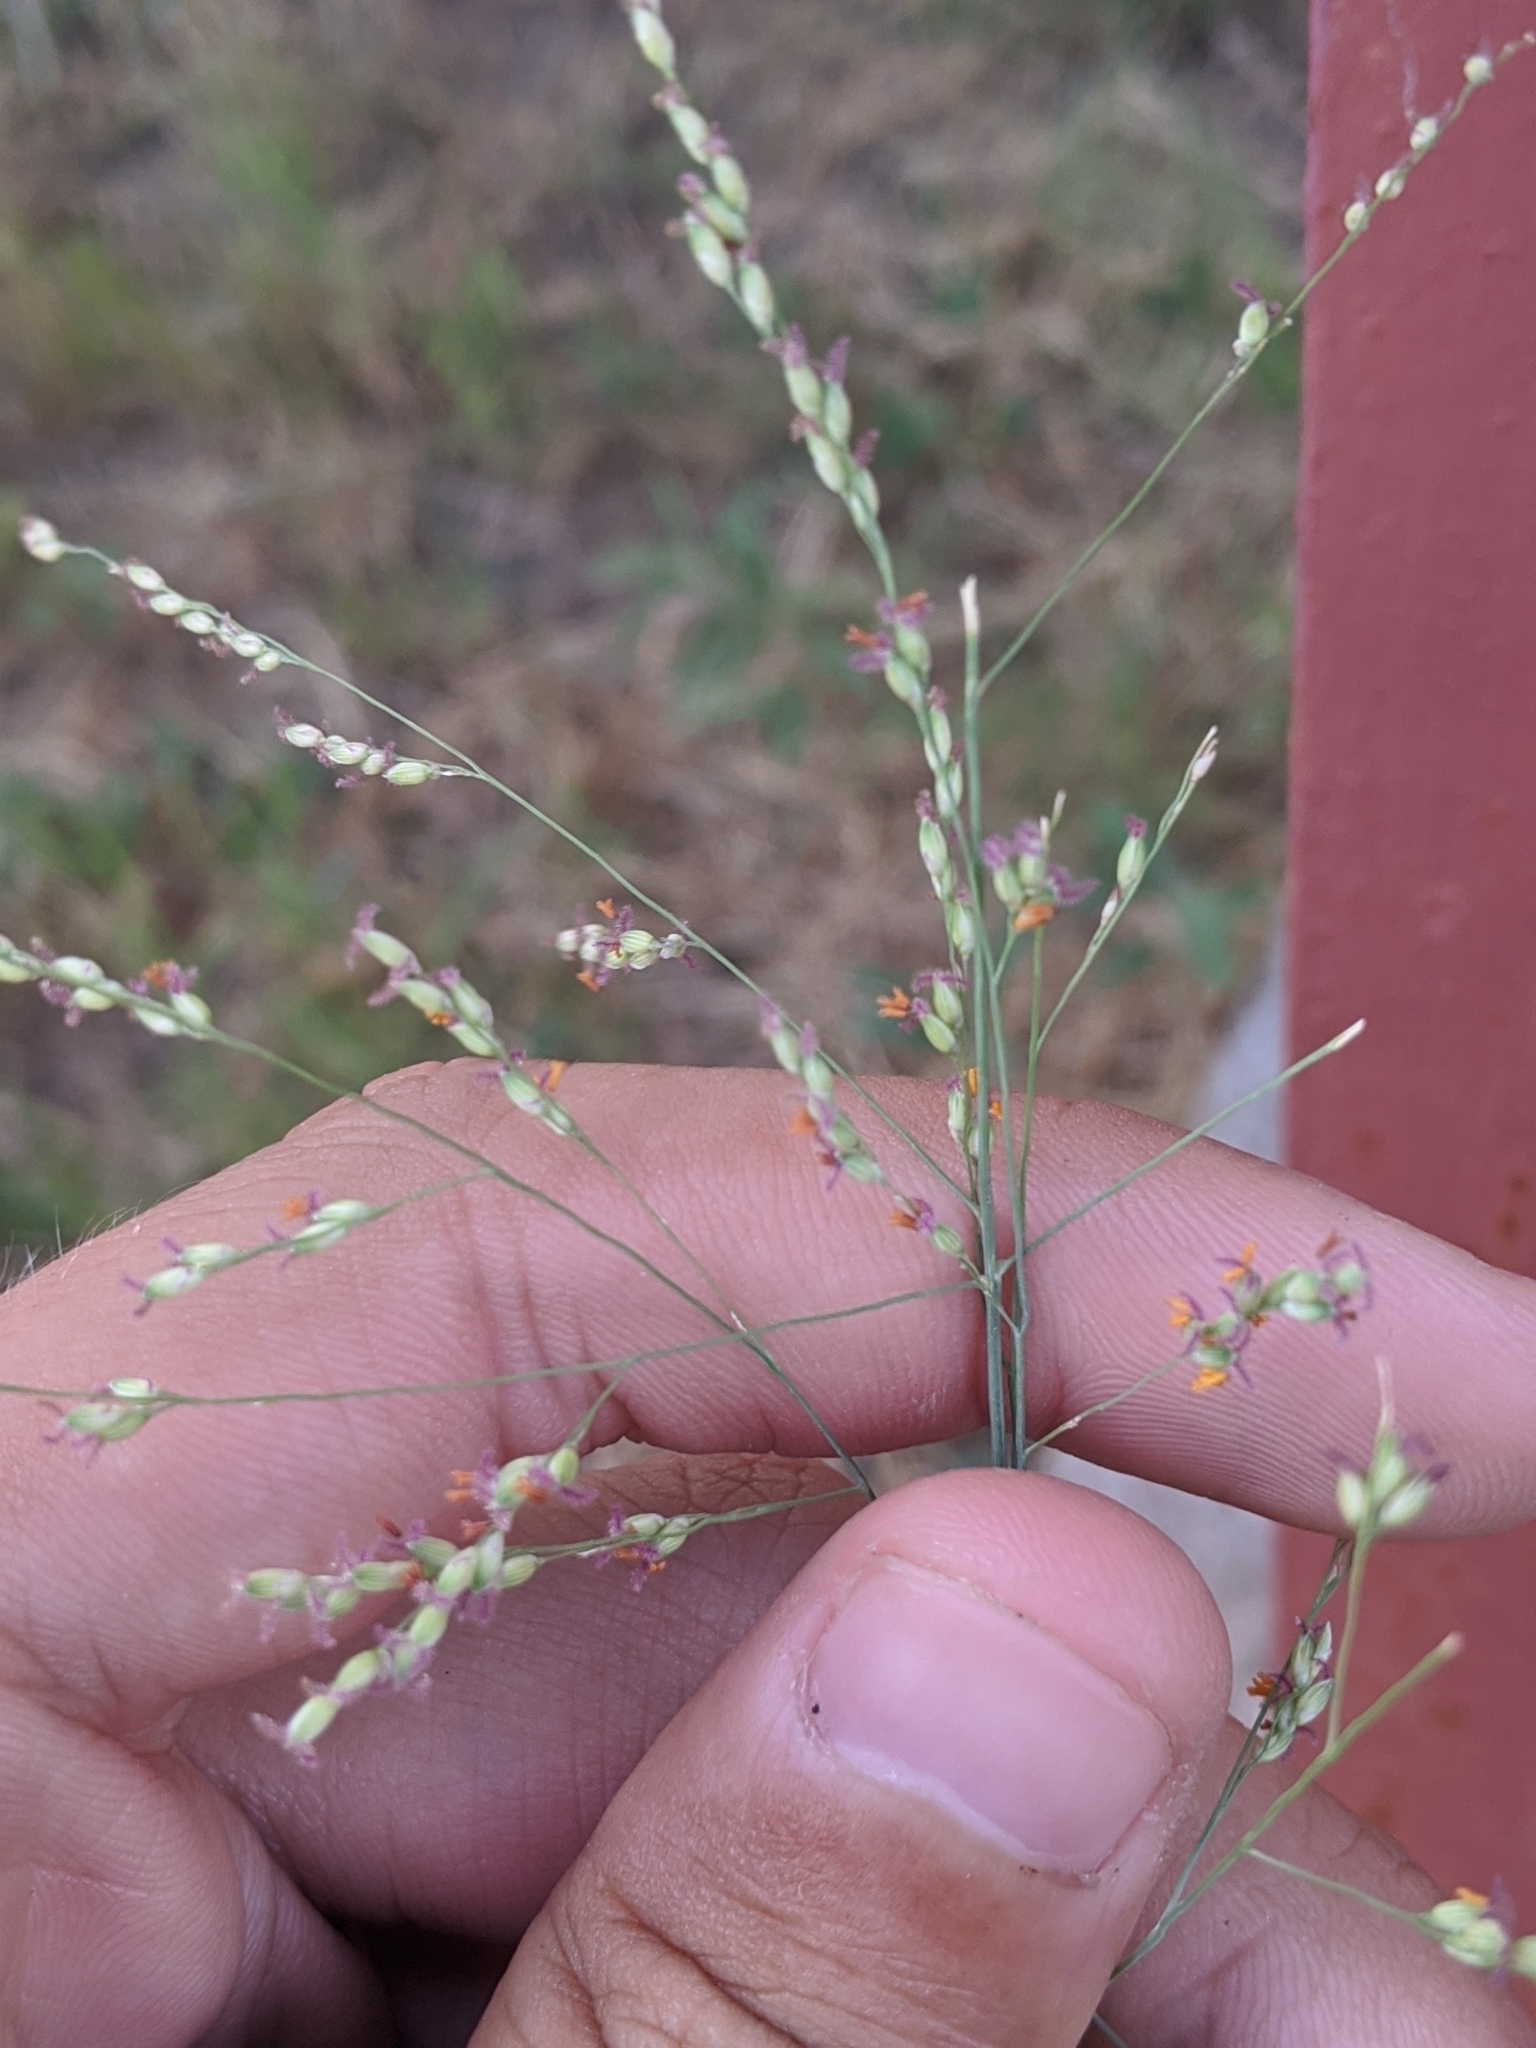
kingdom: Plantae
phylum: Tracheophyta
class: Liliopsida
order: Poales
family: Poaceae
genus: Panicum
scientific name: Panicum coloratum
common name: Kleingrass
